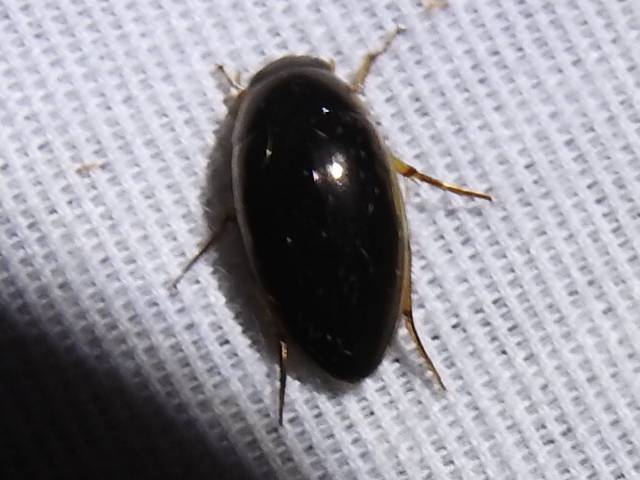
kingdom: Animalia
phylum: Arthropoda
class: Insecta
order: Coleoptera
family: Hydrophilidae
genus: Tropisternus
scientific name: Tropisternus lateralis
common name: Lateral-banded water scavenger beetle
